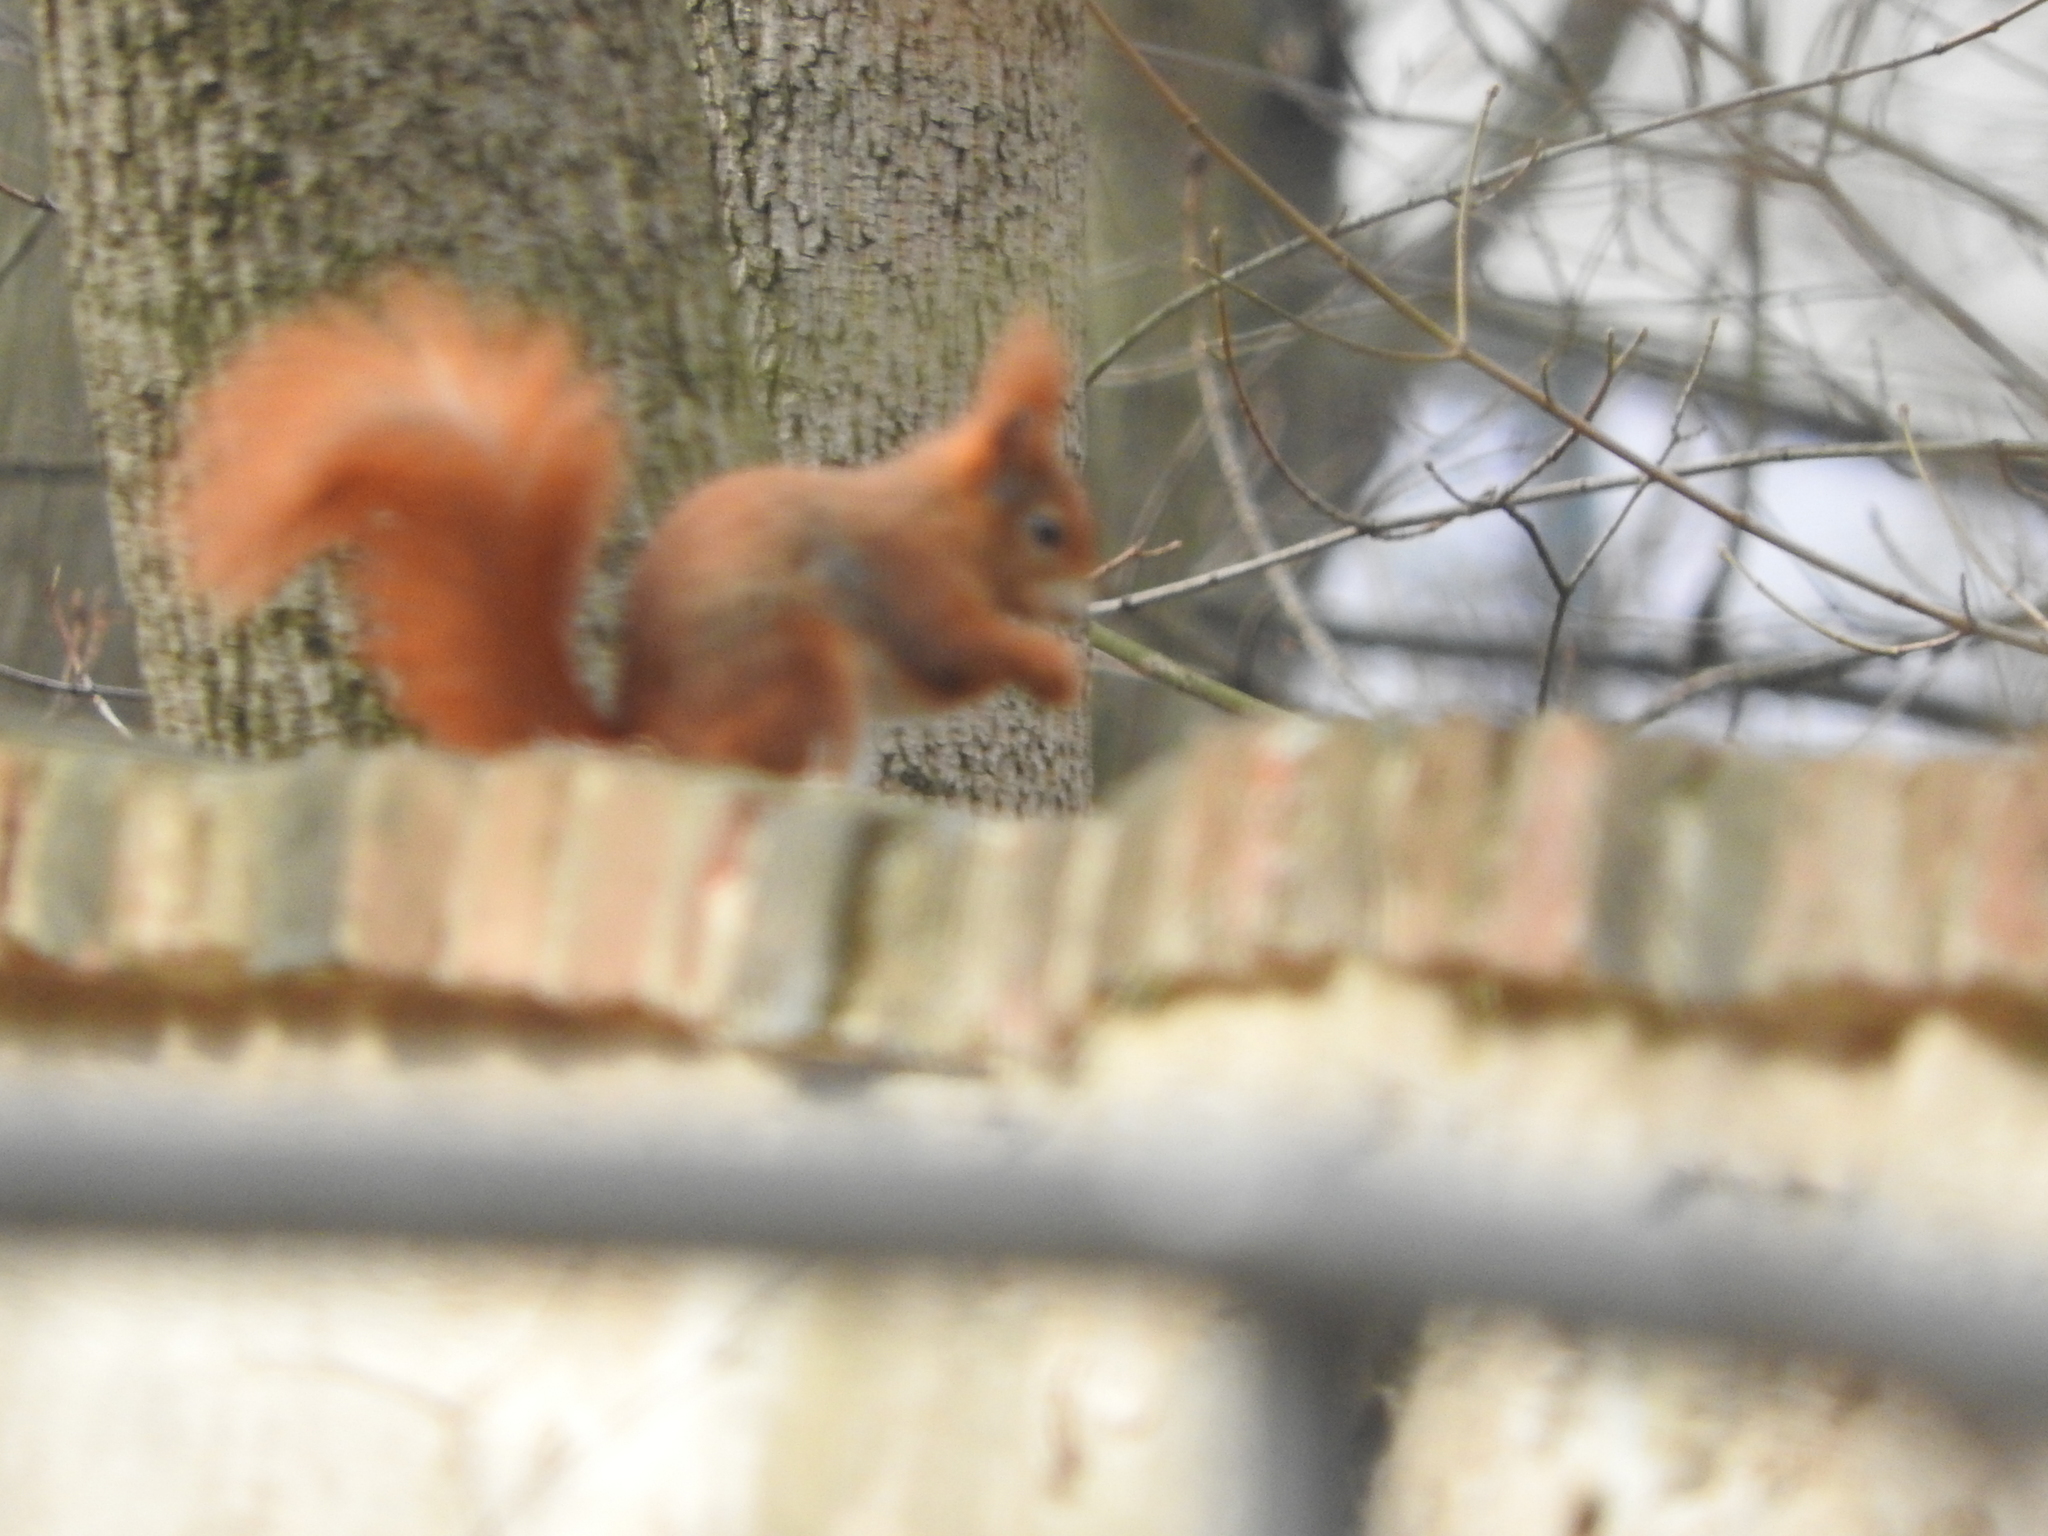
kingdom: Animalia
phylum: Chordata
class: Mammalia
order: Rodentia
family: Sciuridae
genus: Sciurus
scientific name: Sciurus vulgaris
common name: Eurasian red squirrel
